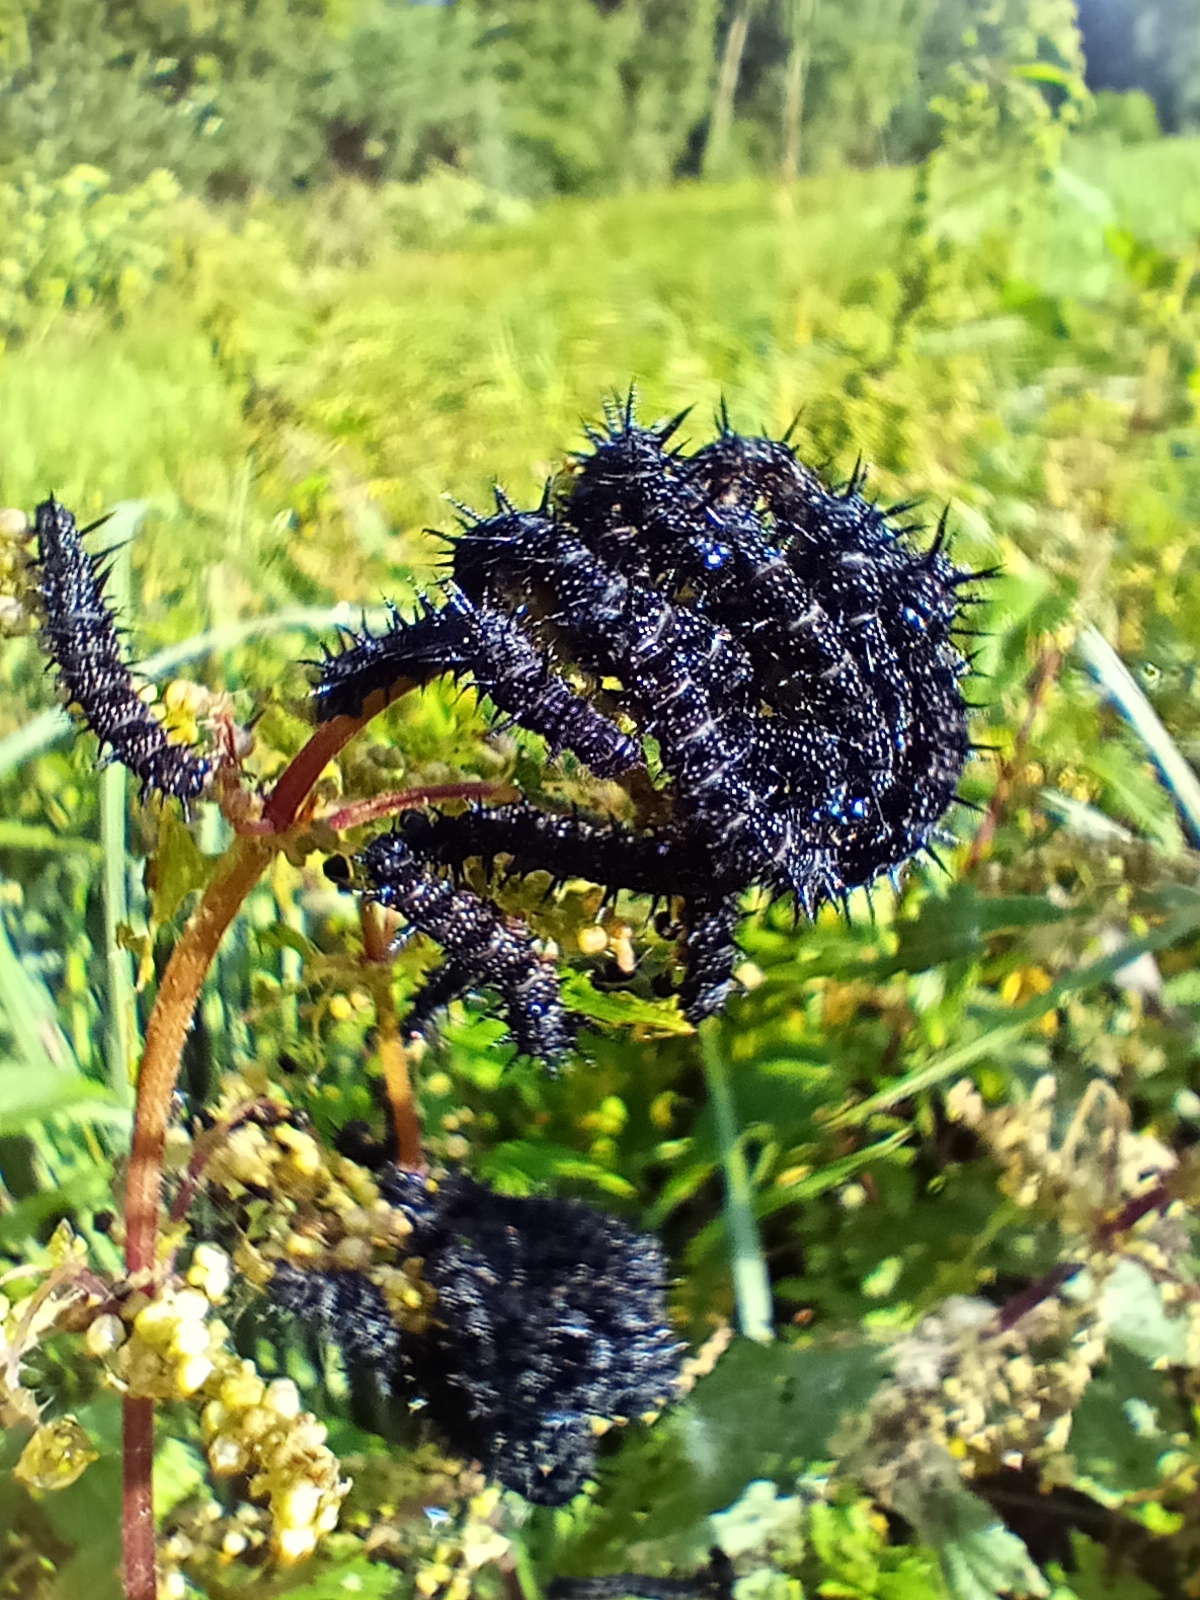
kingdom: Animalia
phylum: Arthropoda
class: Insecta
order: Lepidoptera
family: Nymphalidae
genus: Aglais
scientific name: Aglais io
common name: Peacock
